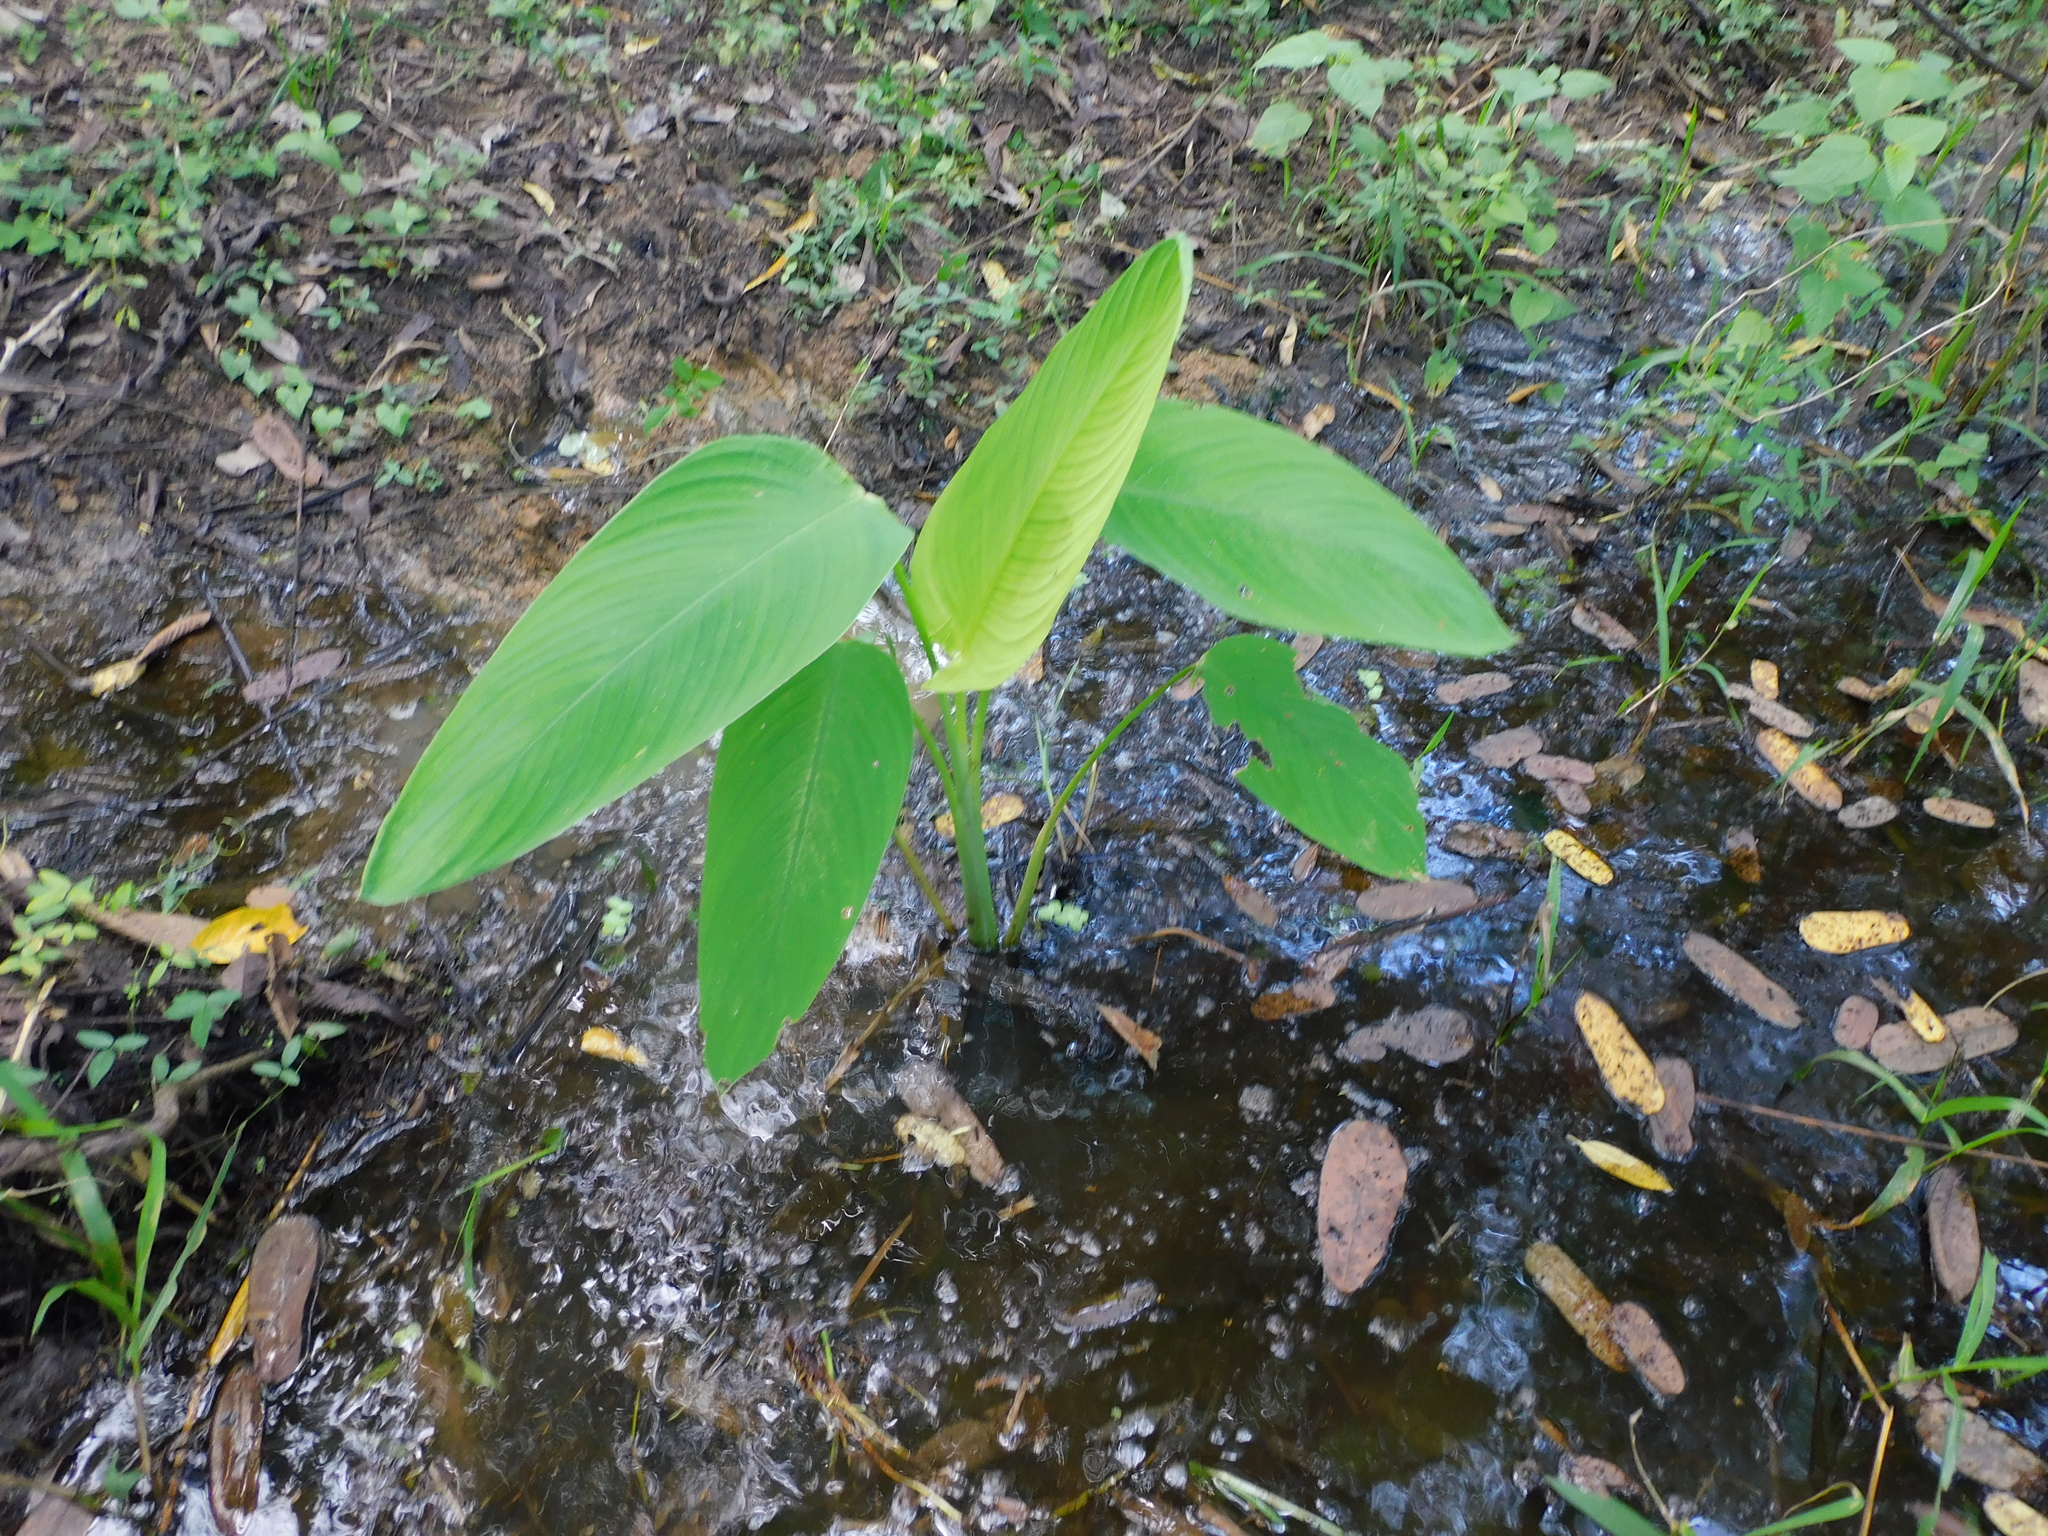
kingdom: Plantae
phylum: Tracheophyta
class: Liliopsida
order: Zingiberales
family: Marantaceae
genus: Thalia
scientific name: Thalia geniculata
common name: Arrowroot
